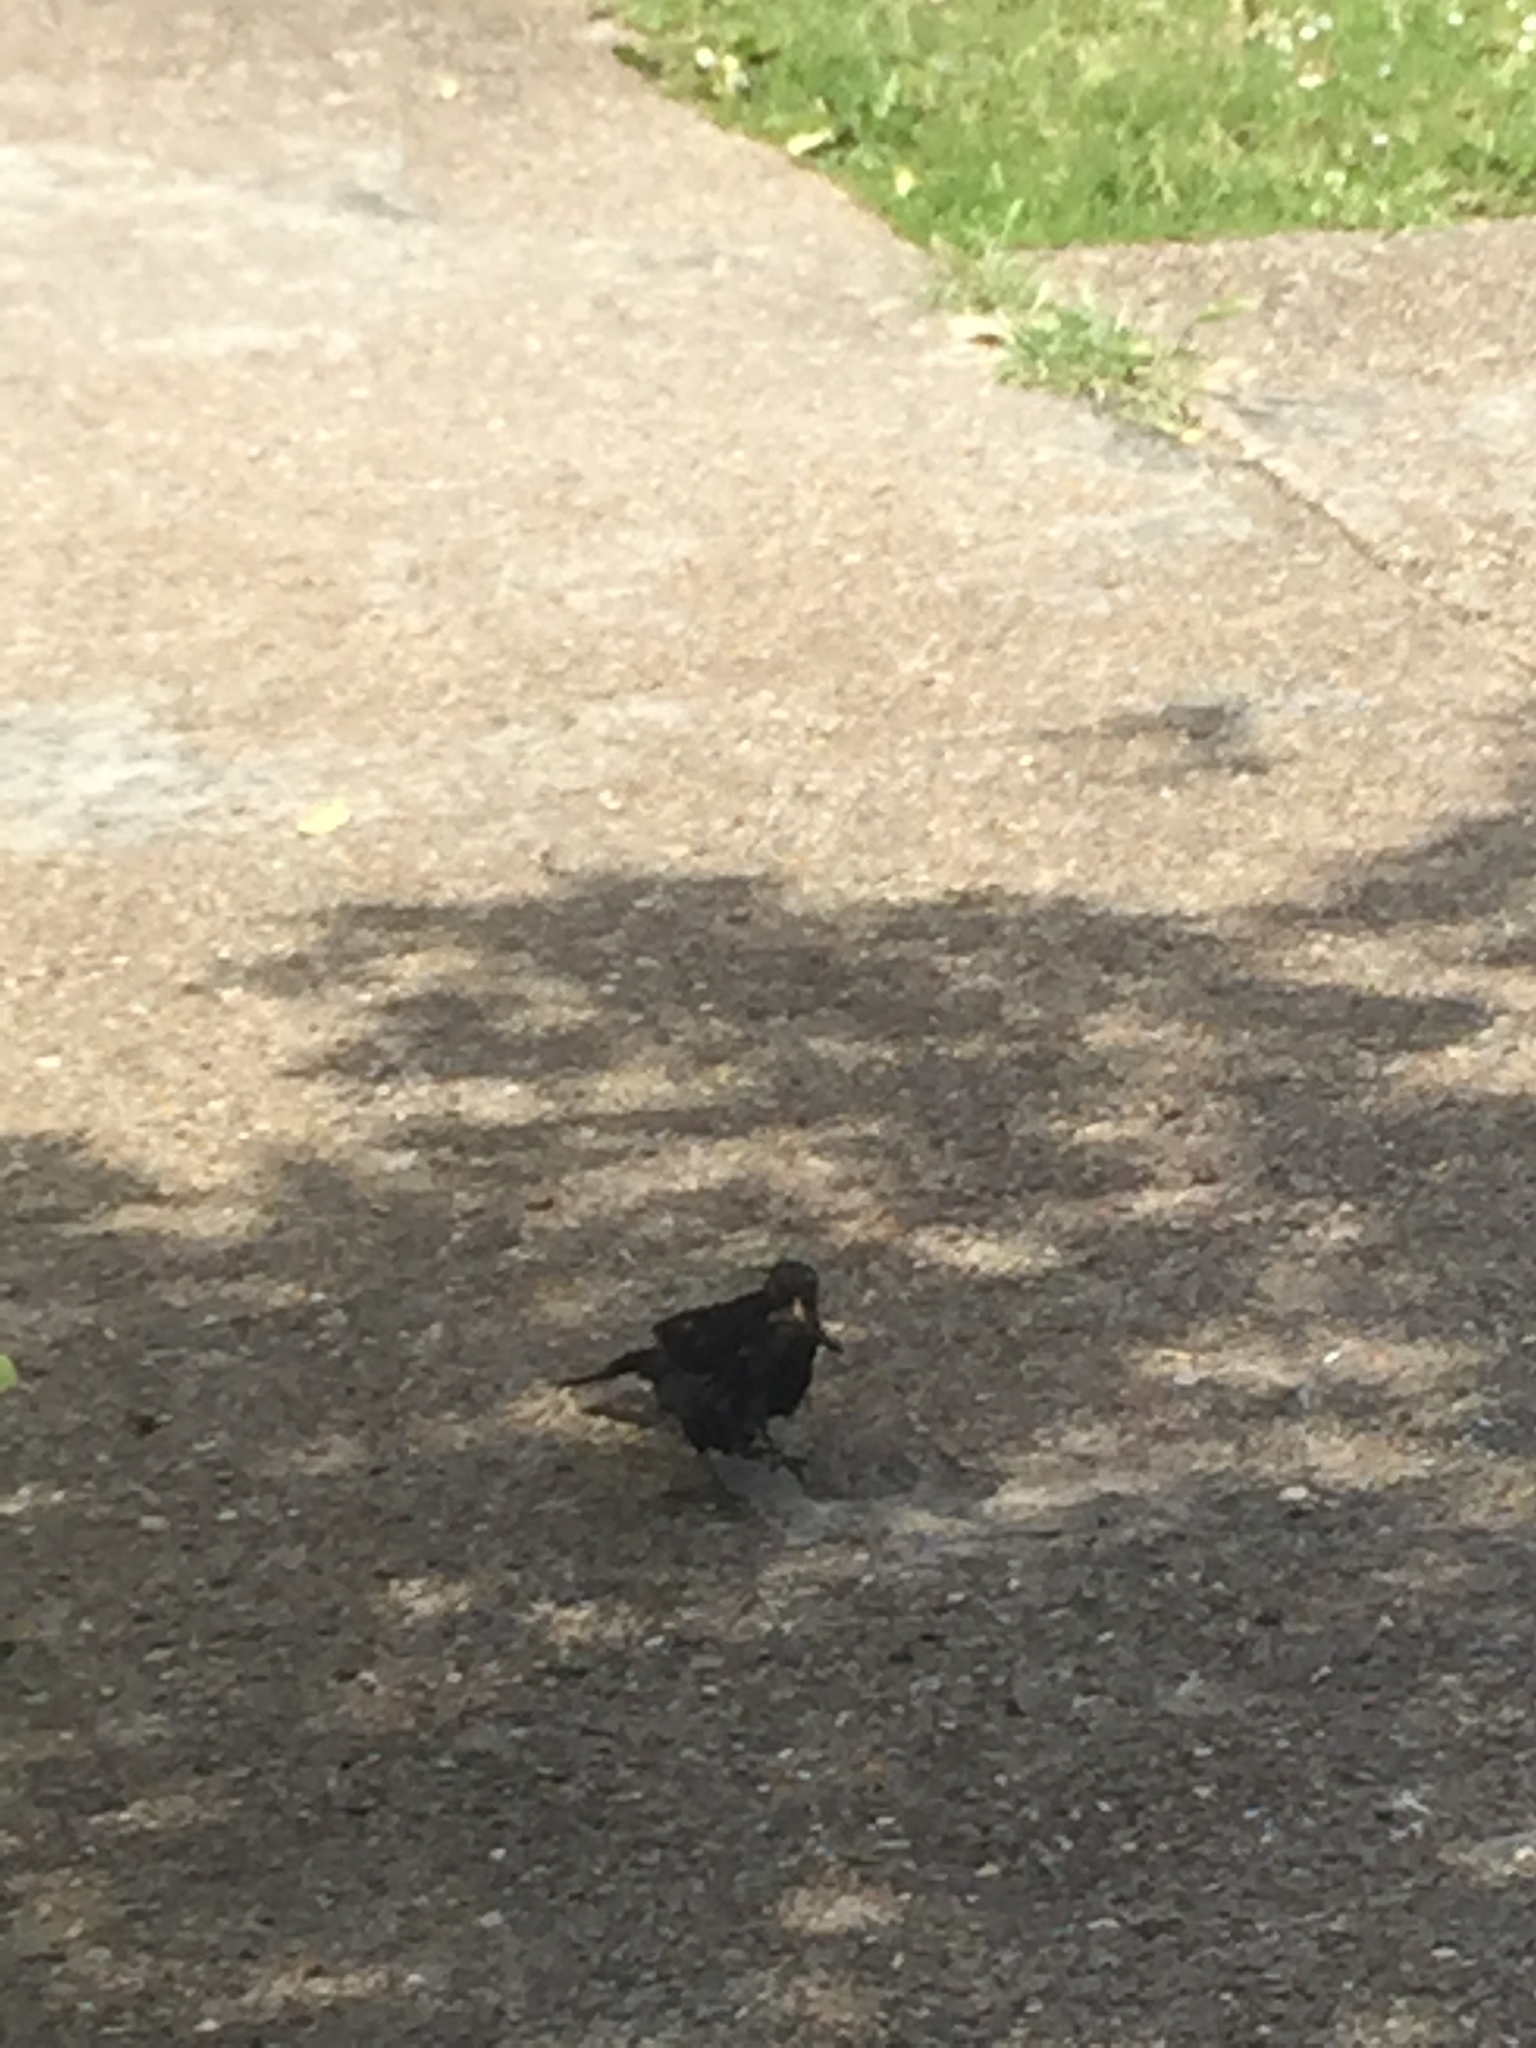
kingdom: Animalia
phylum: Chordata
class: Aves
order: Passeriformes
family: Turdidae
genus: Turdus
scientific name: Turdus merula
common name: Common blackbird
